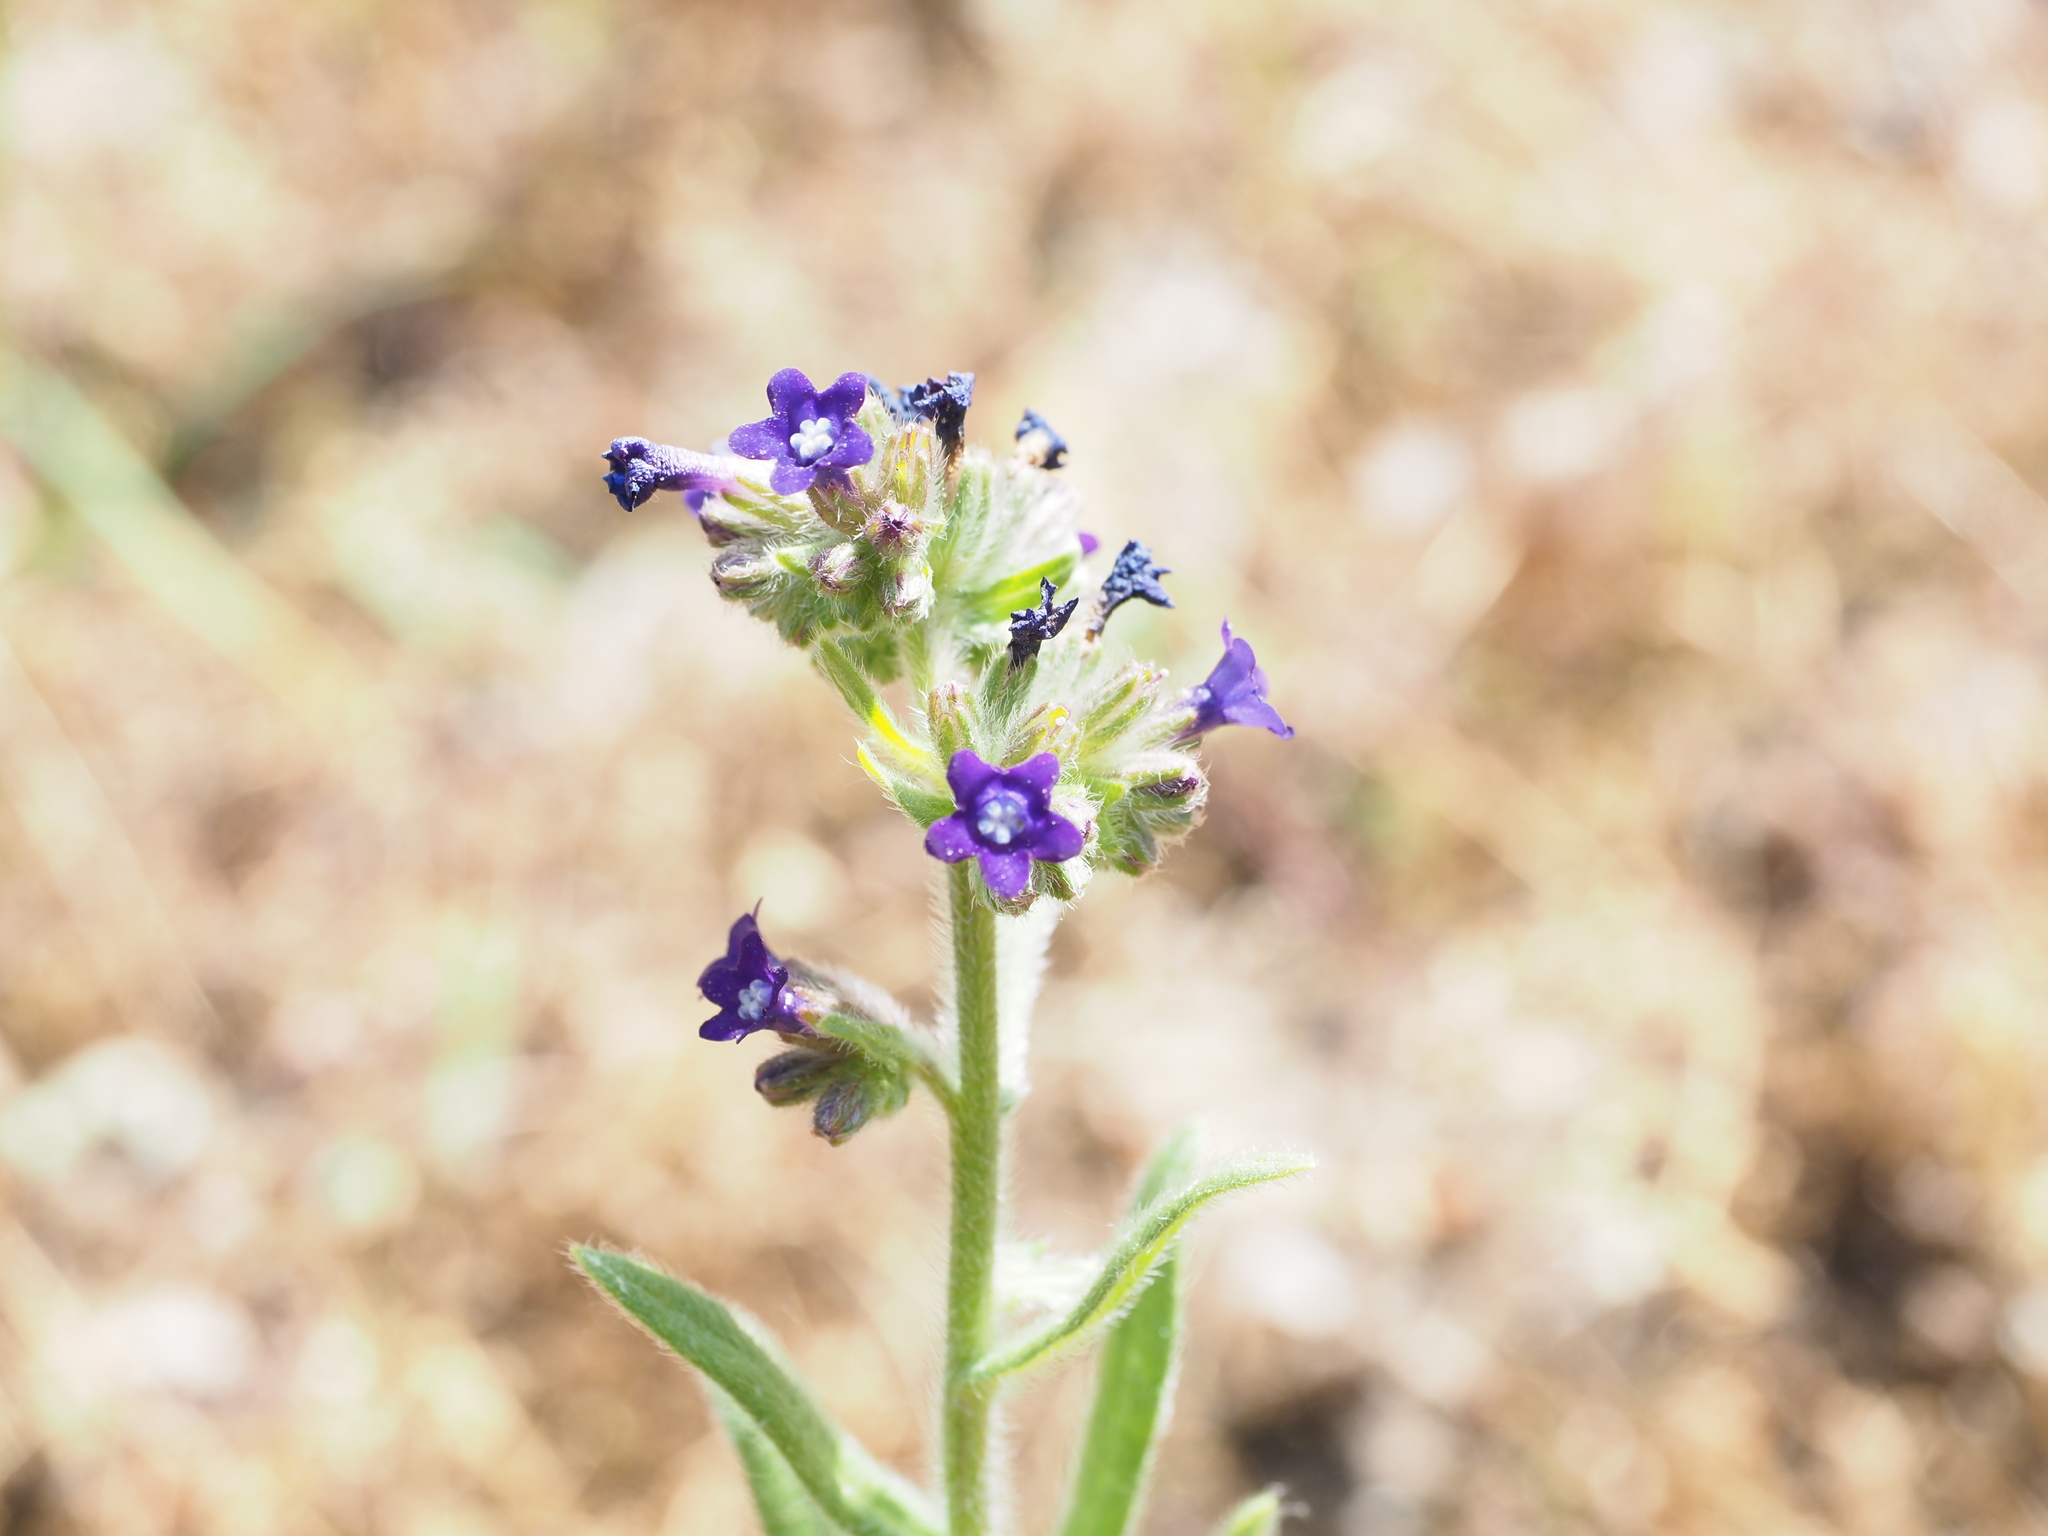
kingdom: Plantae
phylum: Tracheophyta
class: Magnoliopsida
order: Boraginales
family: Boraginaceae
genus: Anchusa
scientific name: Anchusa officinalis
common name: Alkanet
